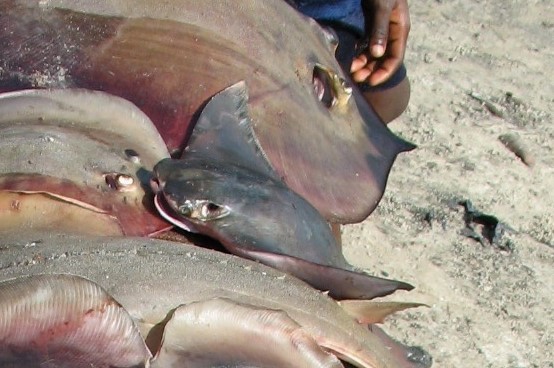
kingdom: Animalia
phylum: Chordata
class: Elasmobranchii
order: Myliobatiformes
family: Myliobatidae
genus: Rhinoptera
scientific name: Rhinoptera marginata
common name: Lusitanian cownose ray
